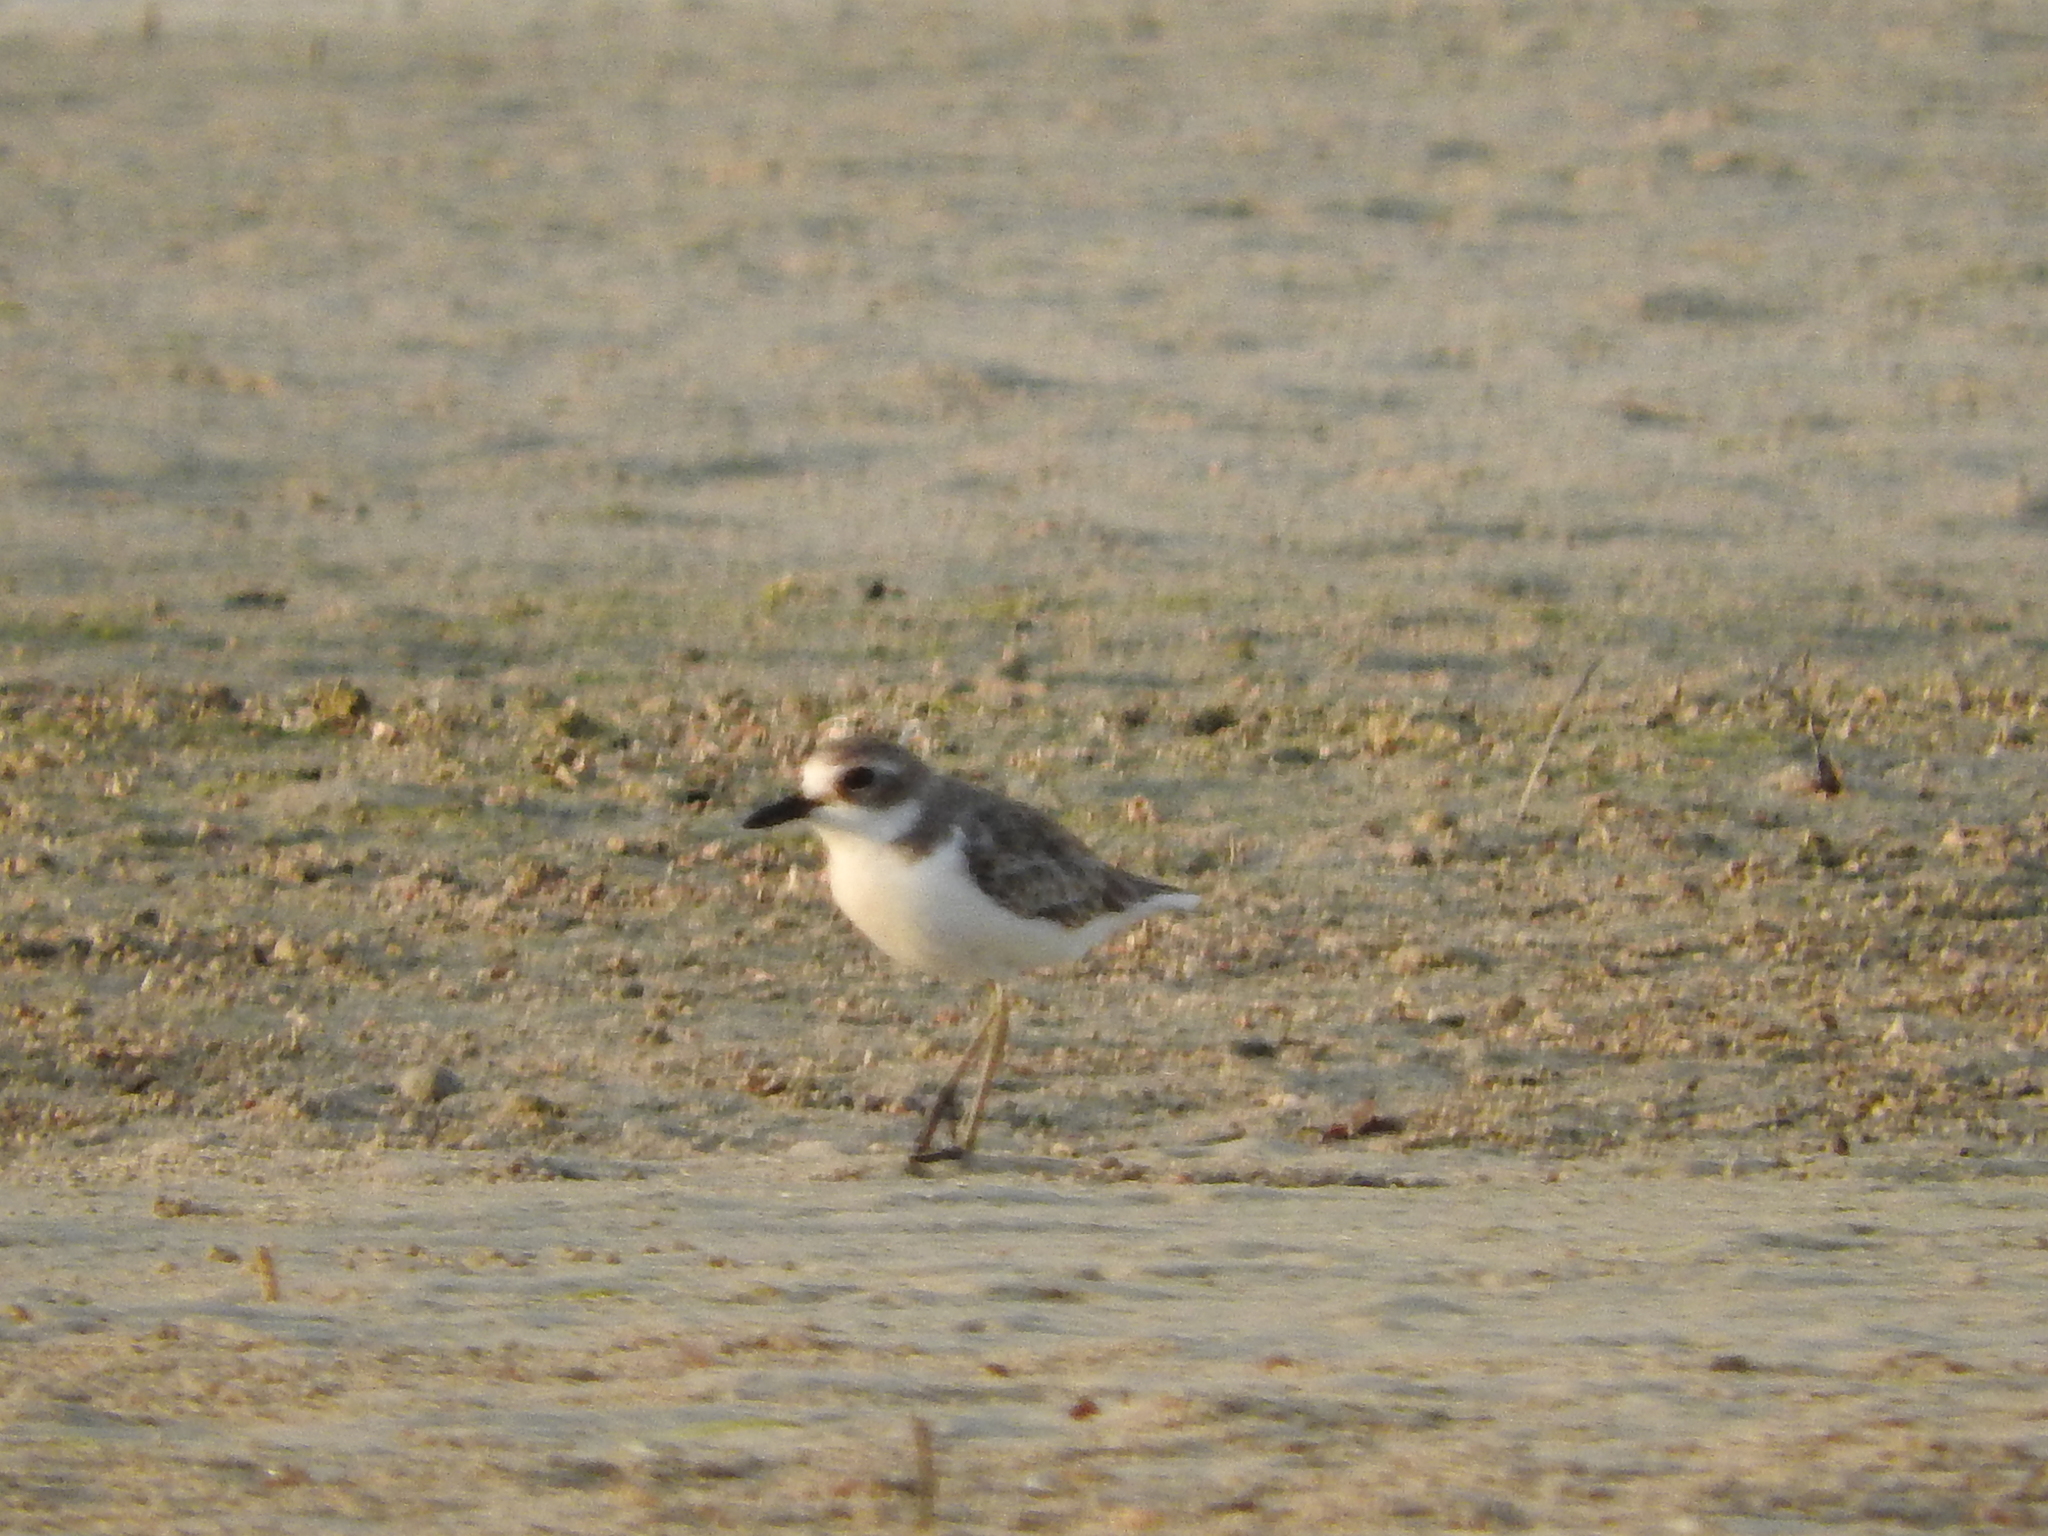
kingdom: Animalia
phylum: Chordata
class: Aves
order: Charadriiformes
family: Charadriidae
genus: Charadrius
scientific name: Charadrius leschenaultii
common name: Greater sand plover
